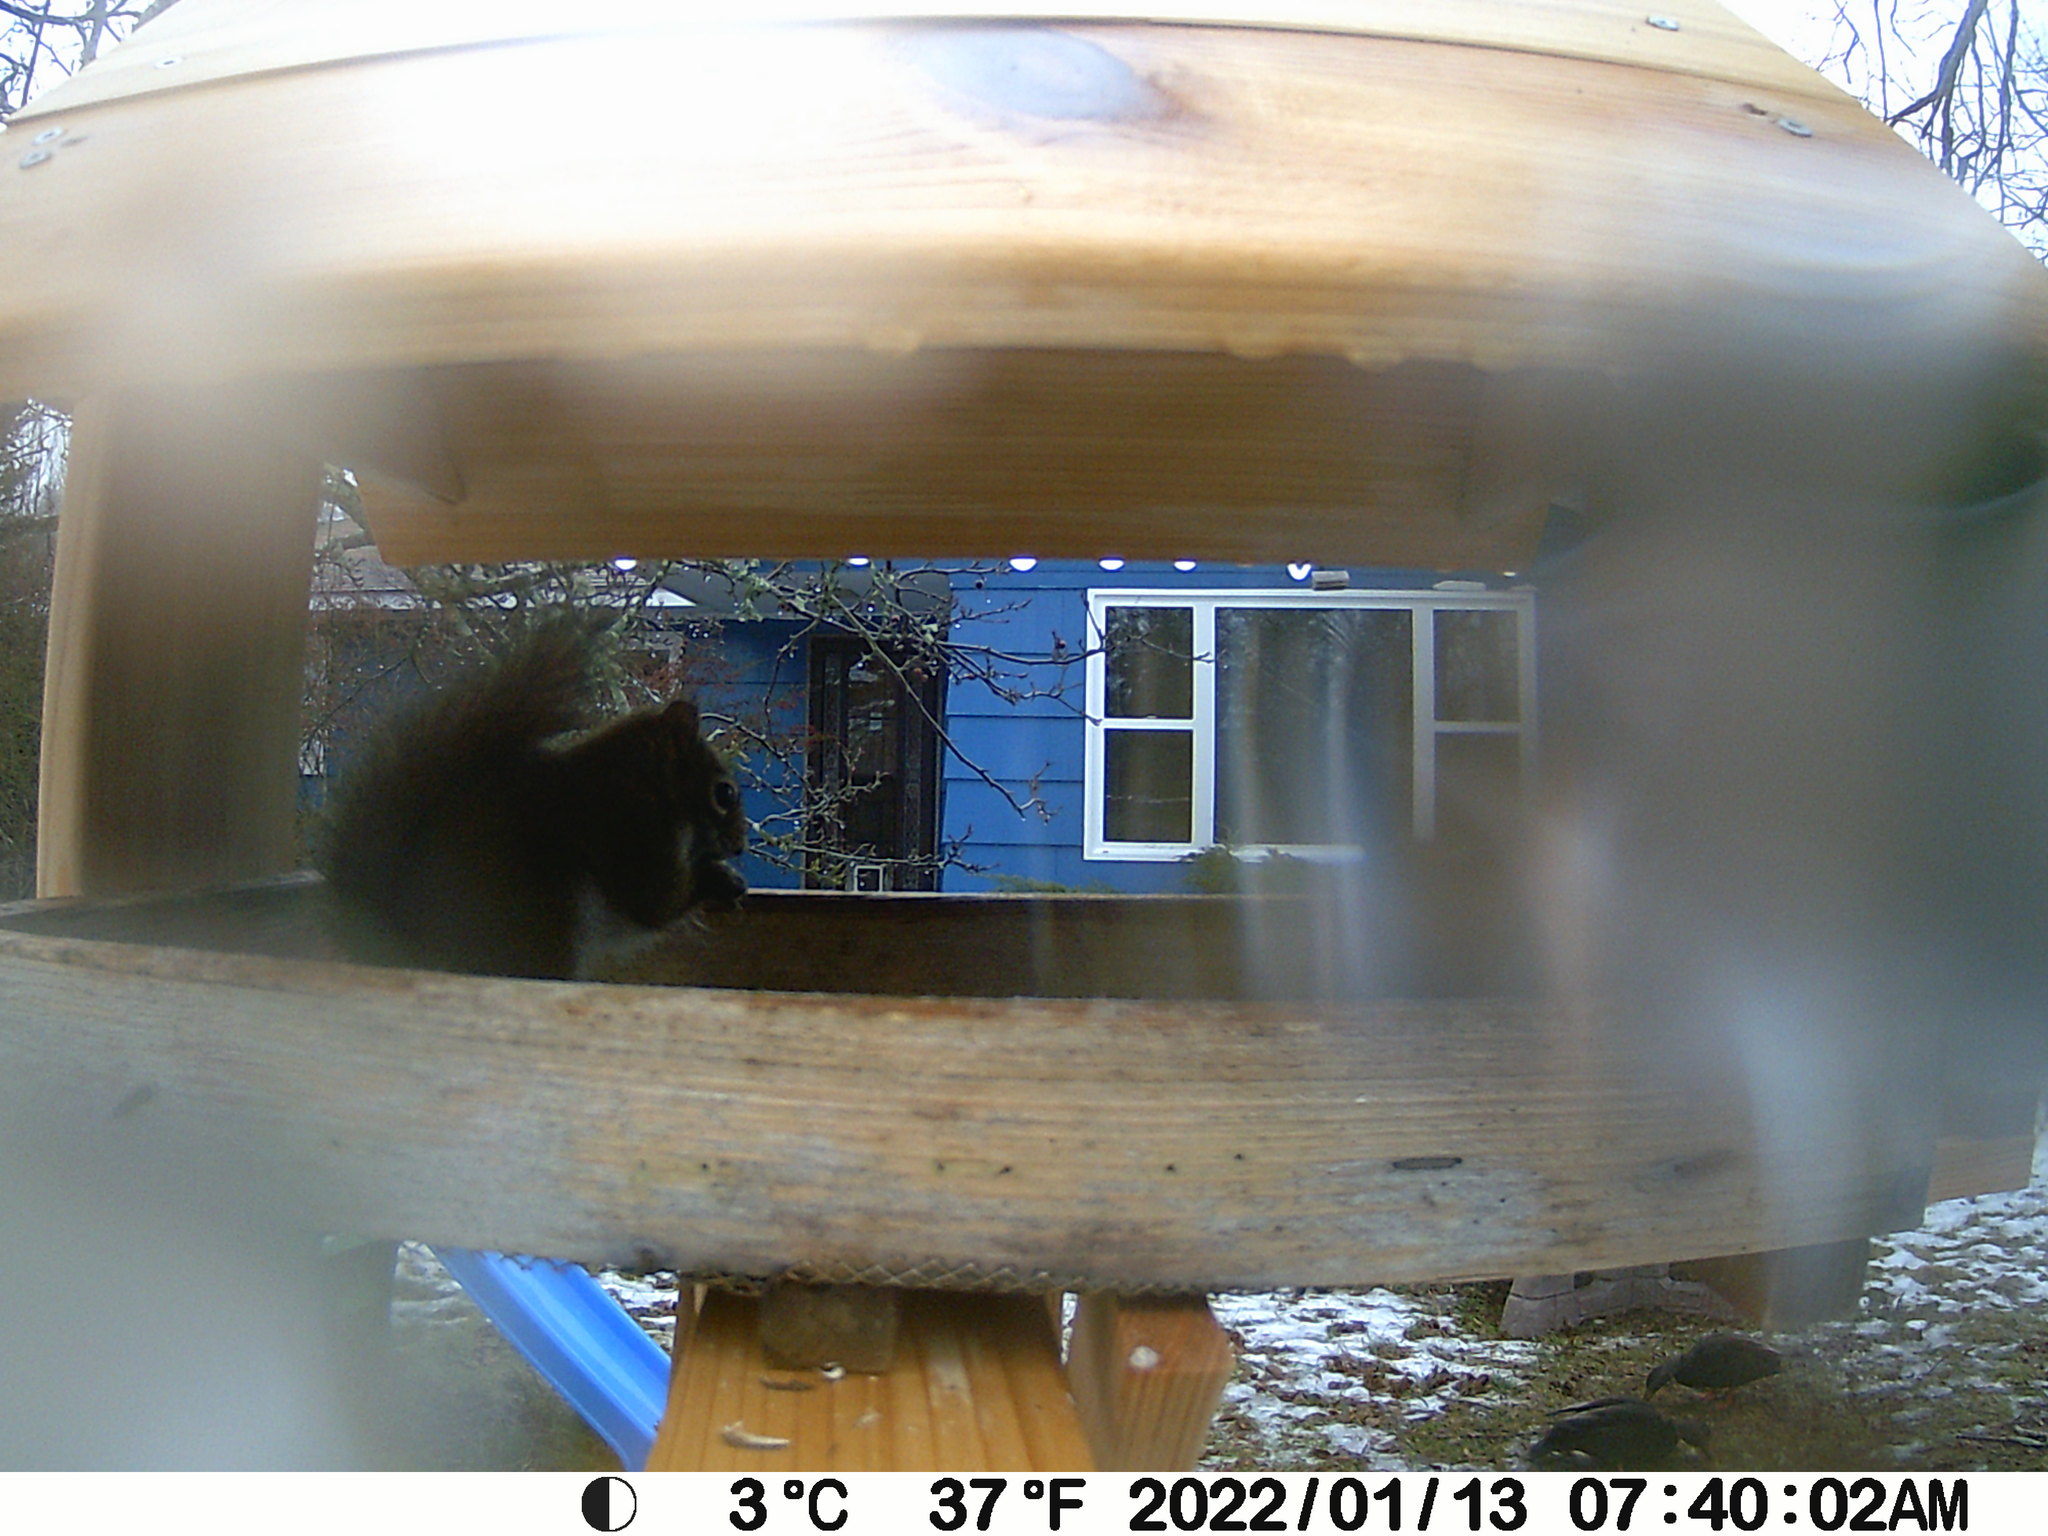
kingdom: Animalia
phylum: Chordata
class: Mammalia
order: Rodentia
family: Sciuridae
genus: Tamiasciurus
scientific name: Tamiasciurus hudsonicus
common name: Red squirrel
